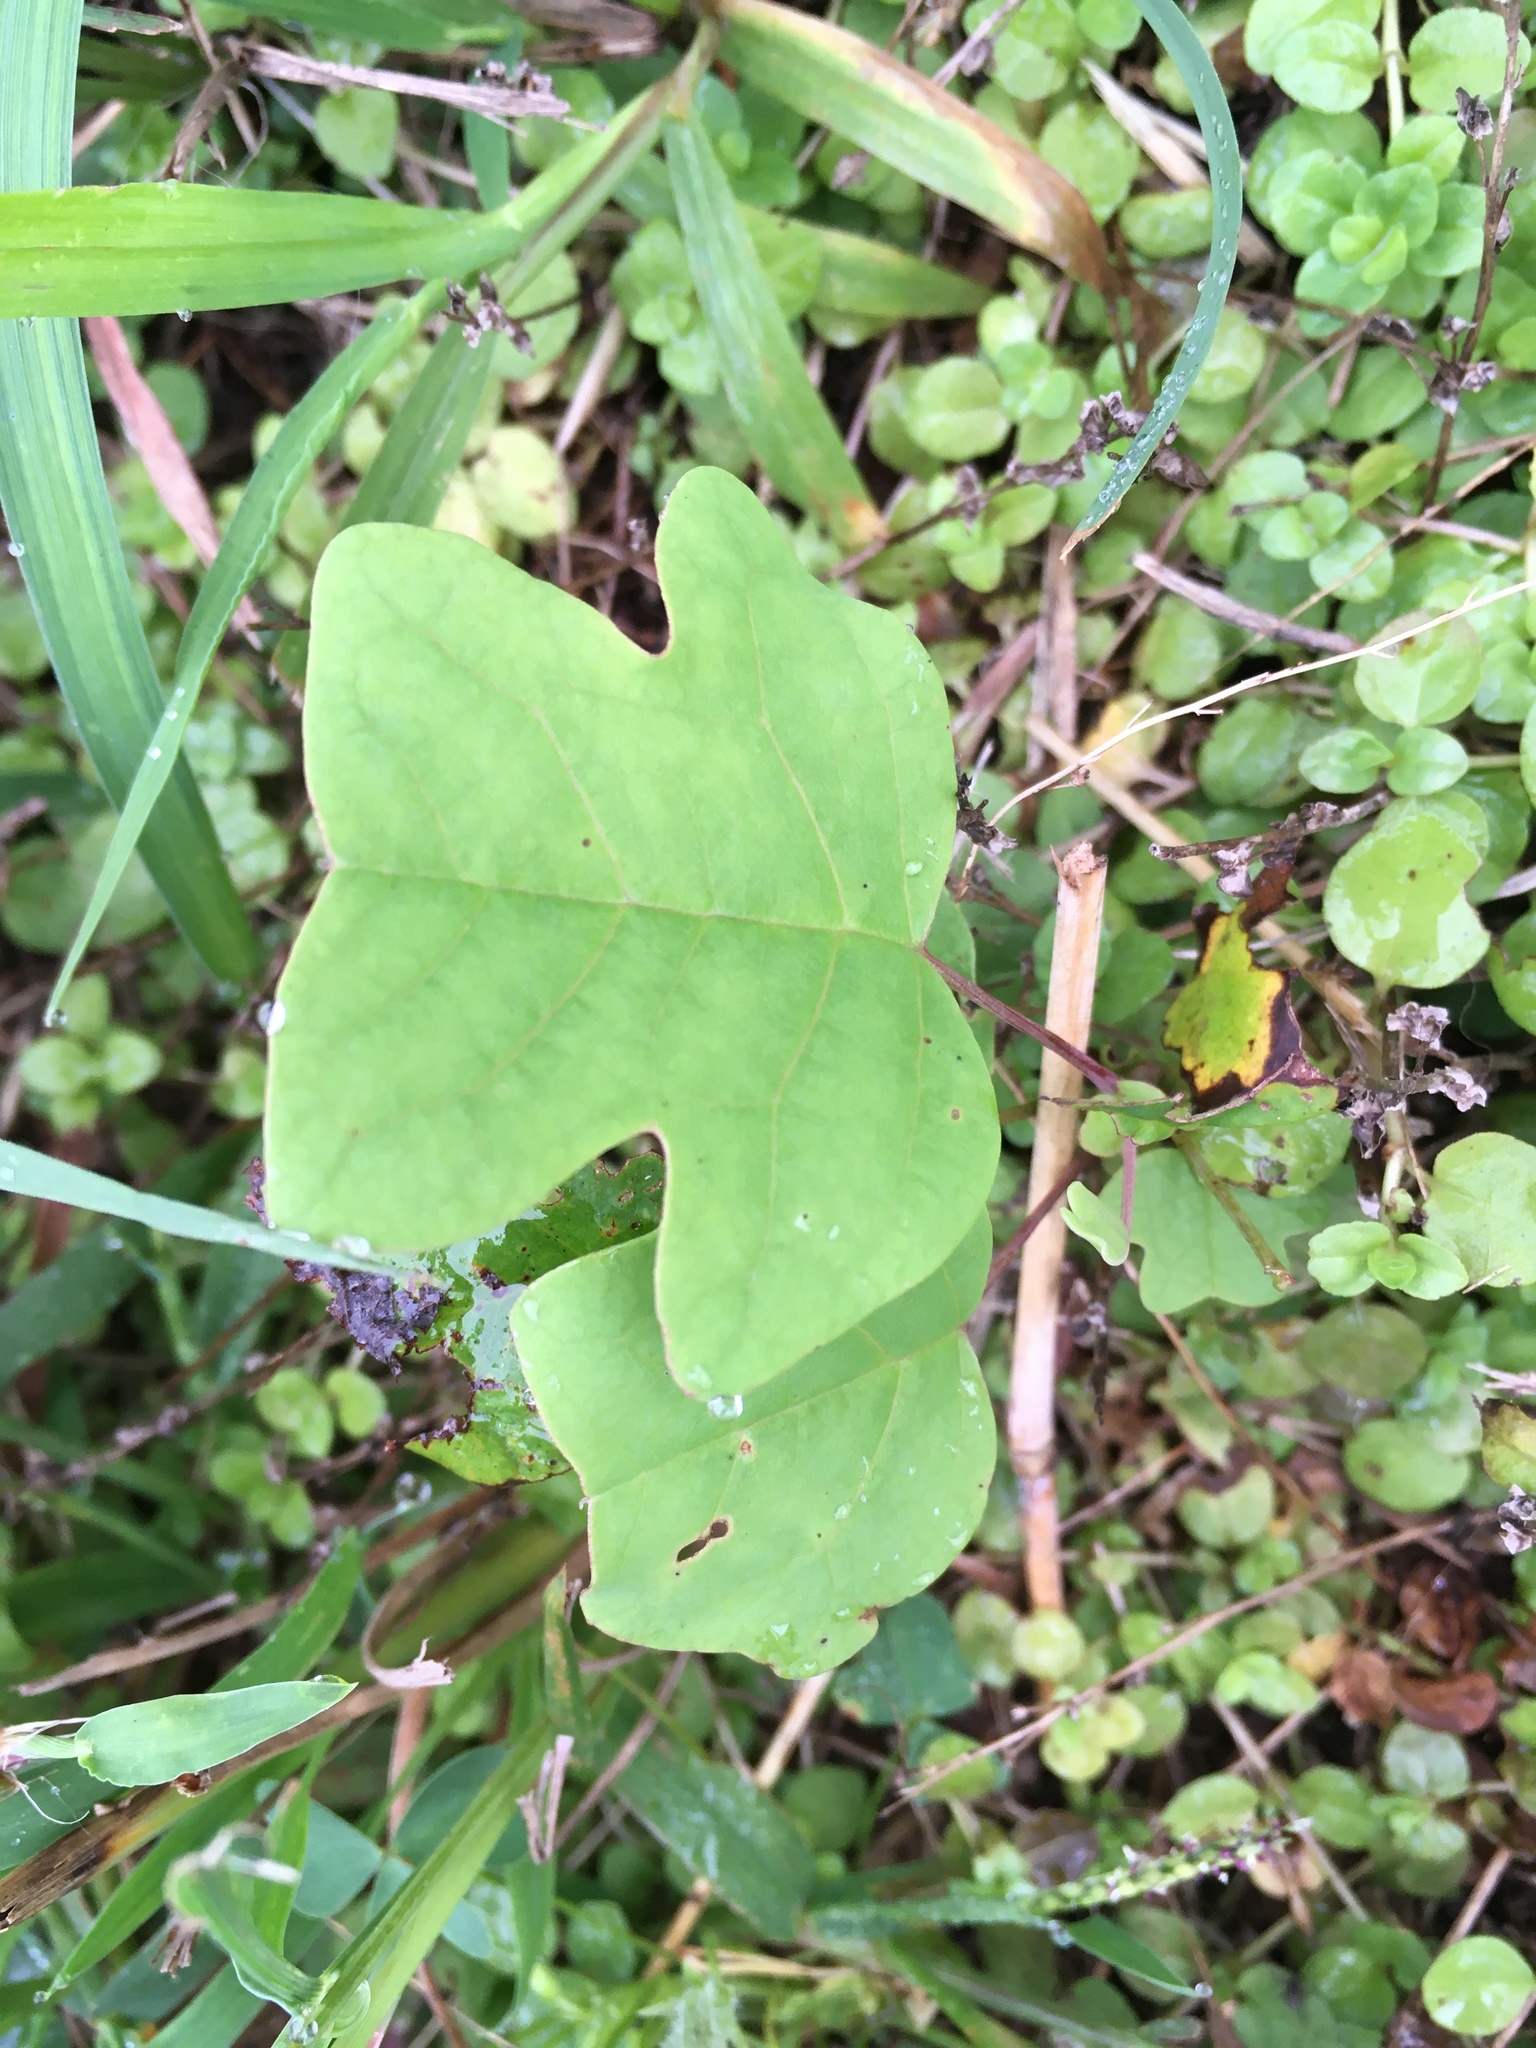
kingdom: Plantae
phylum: Tracheophyta
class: Magnoliopsida
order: Magnoliales
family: Magnoliaceae
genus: Liriodendron
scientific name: Liriodendron tulipifera
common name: Tulip tree
